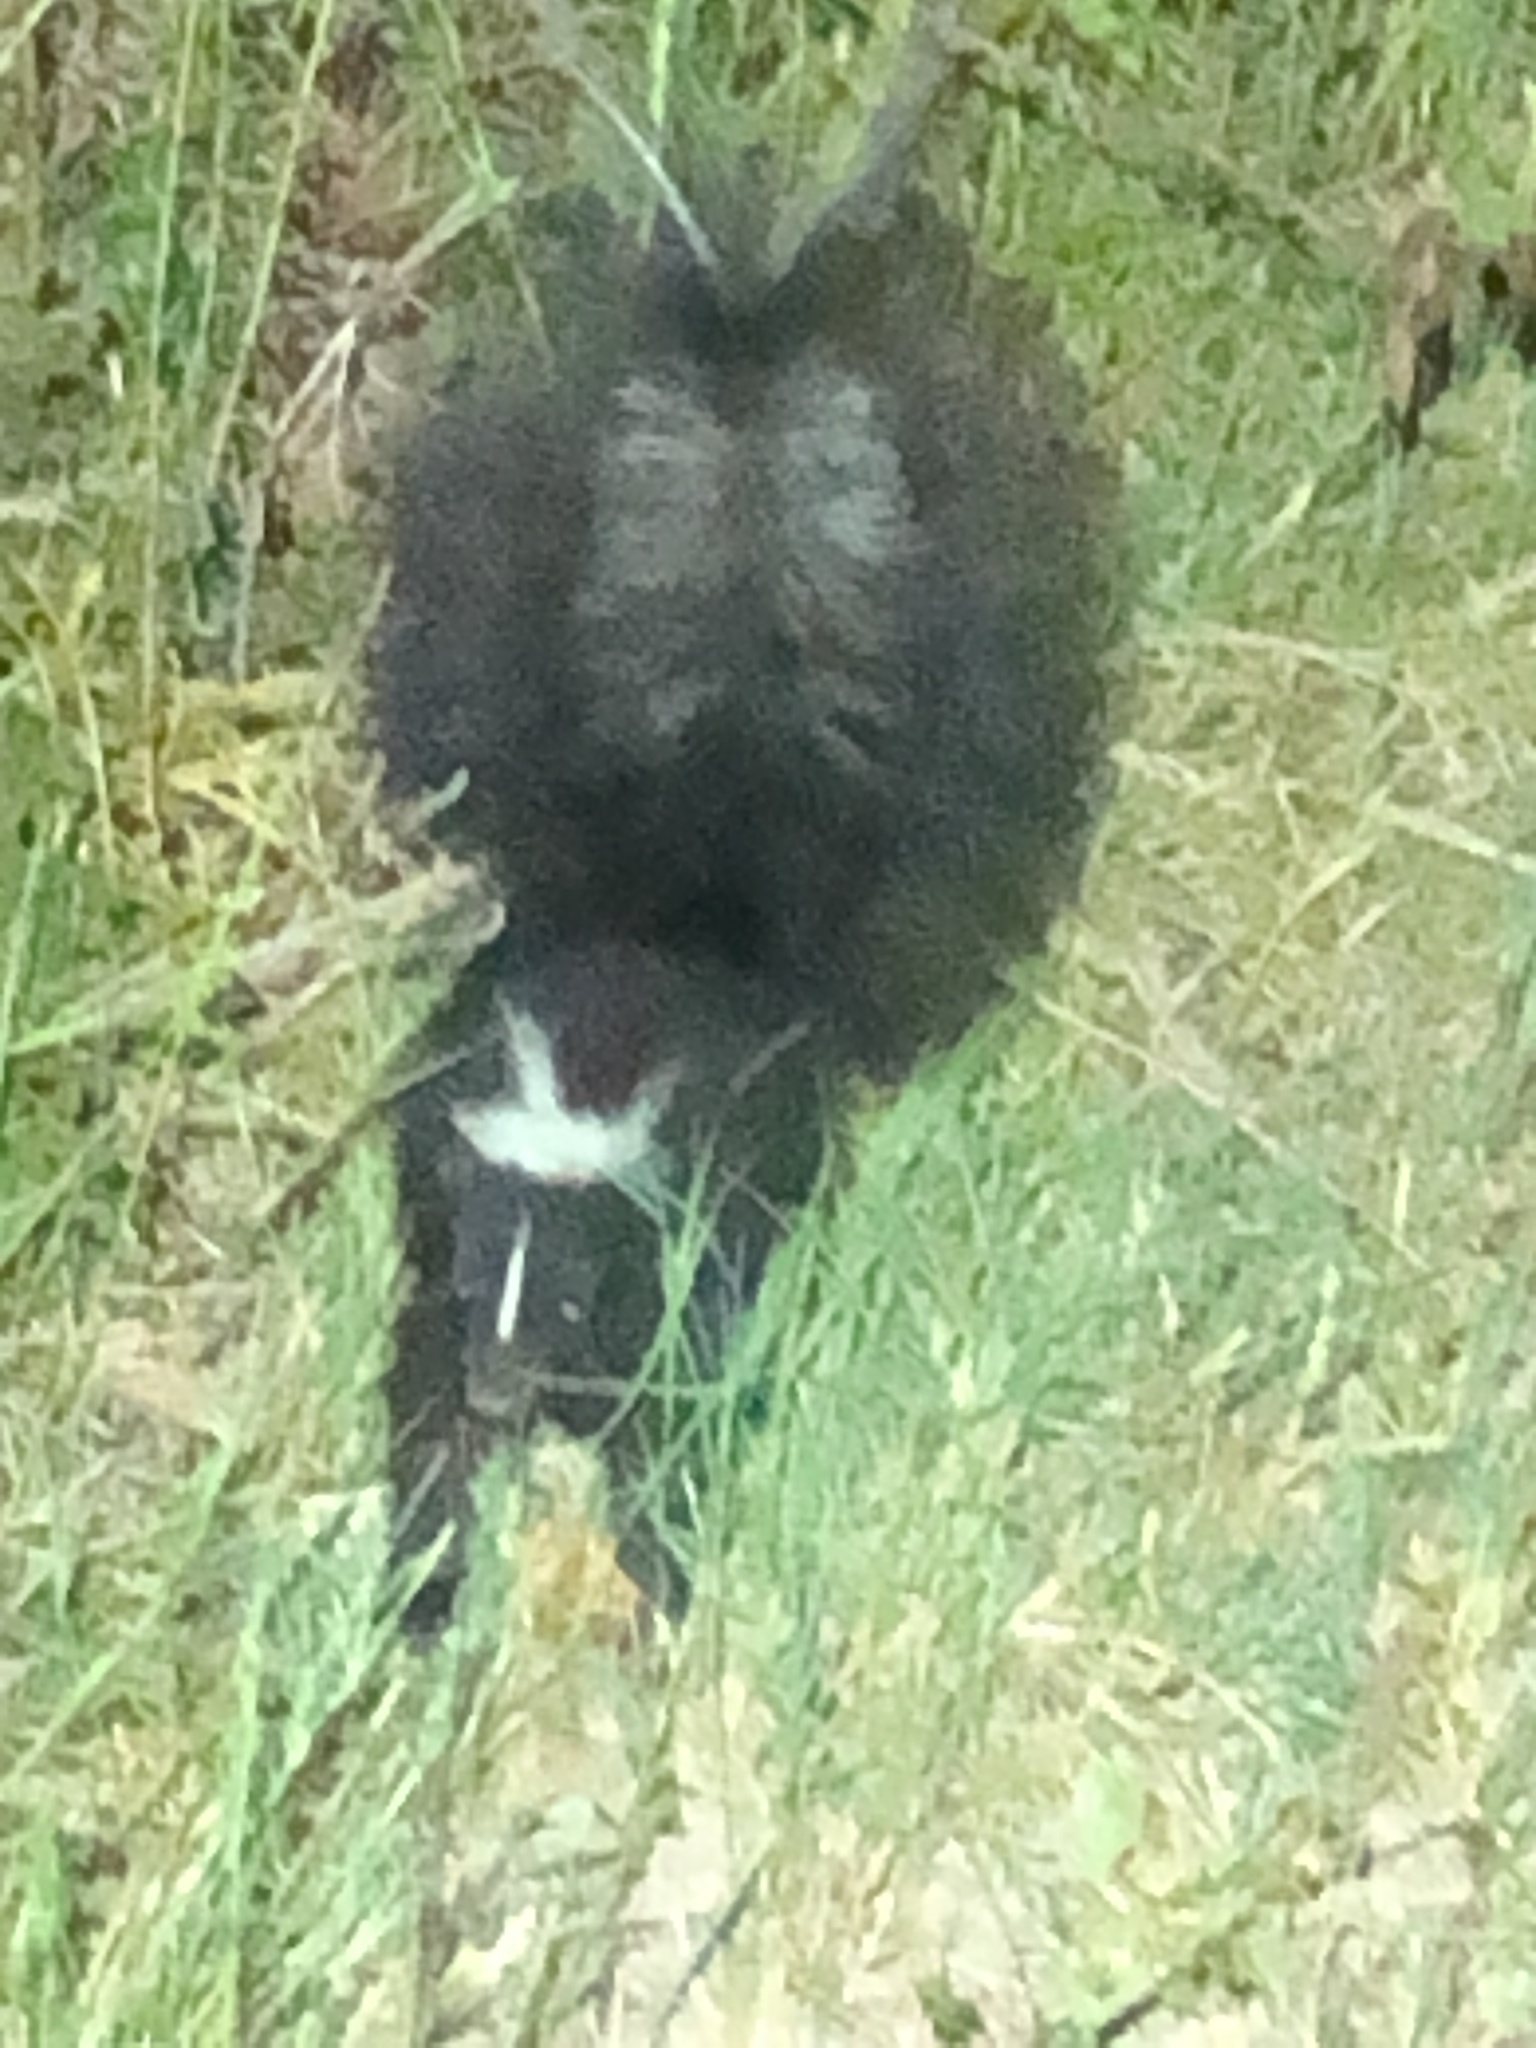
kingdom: Animalia
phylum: Chordata
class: Mammalia
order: Carnivora
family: Mephitidae
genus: Mephitis
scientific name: Mephitis mephitis
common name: Striped skunk
